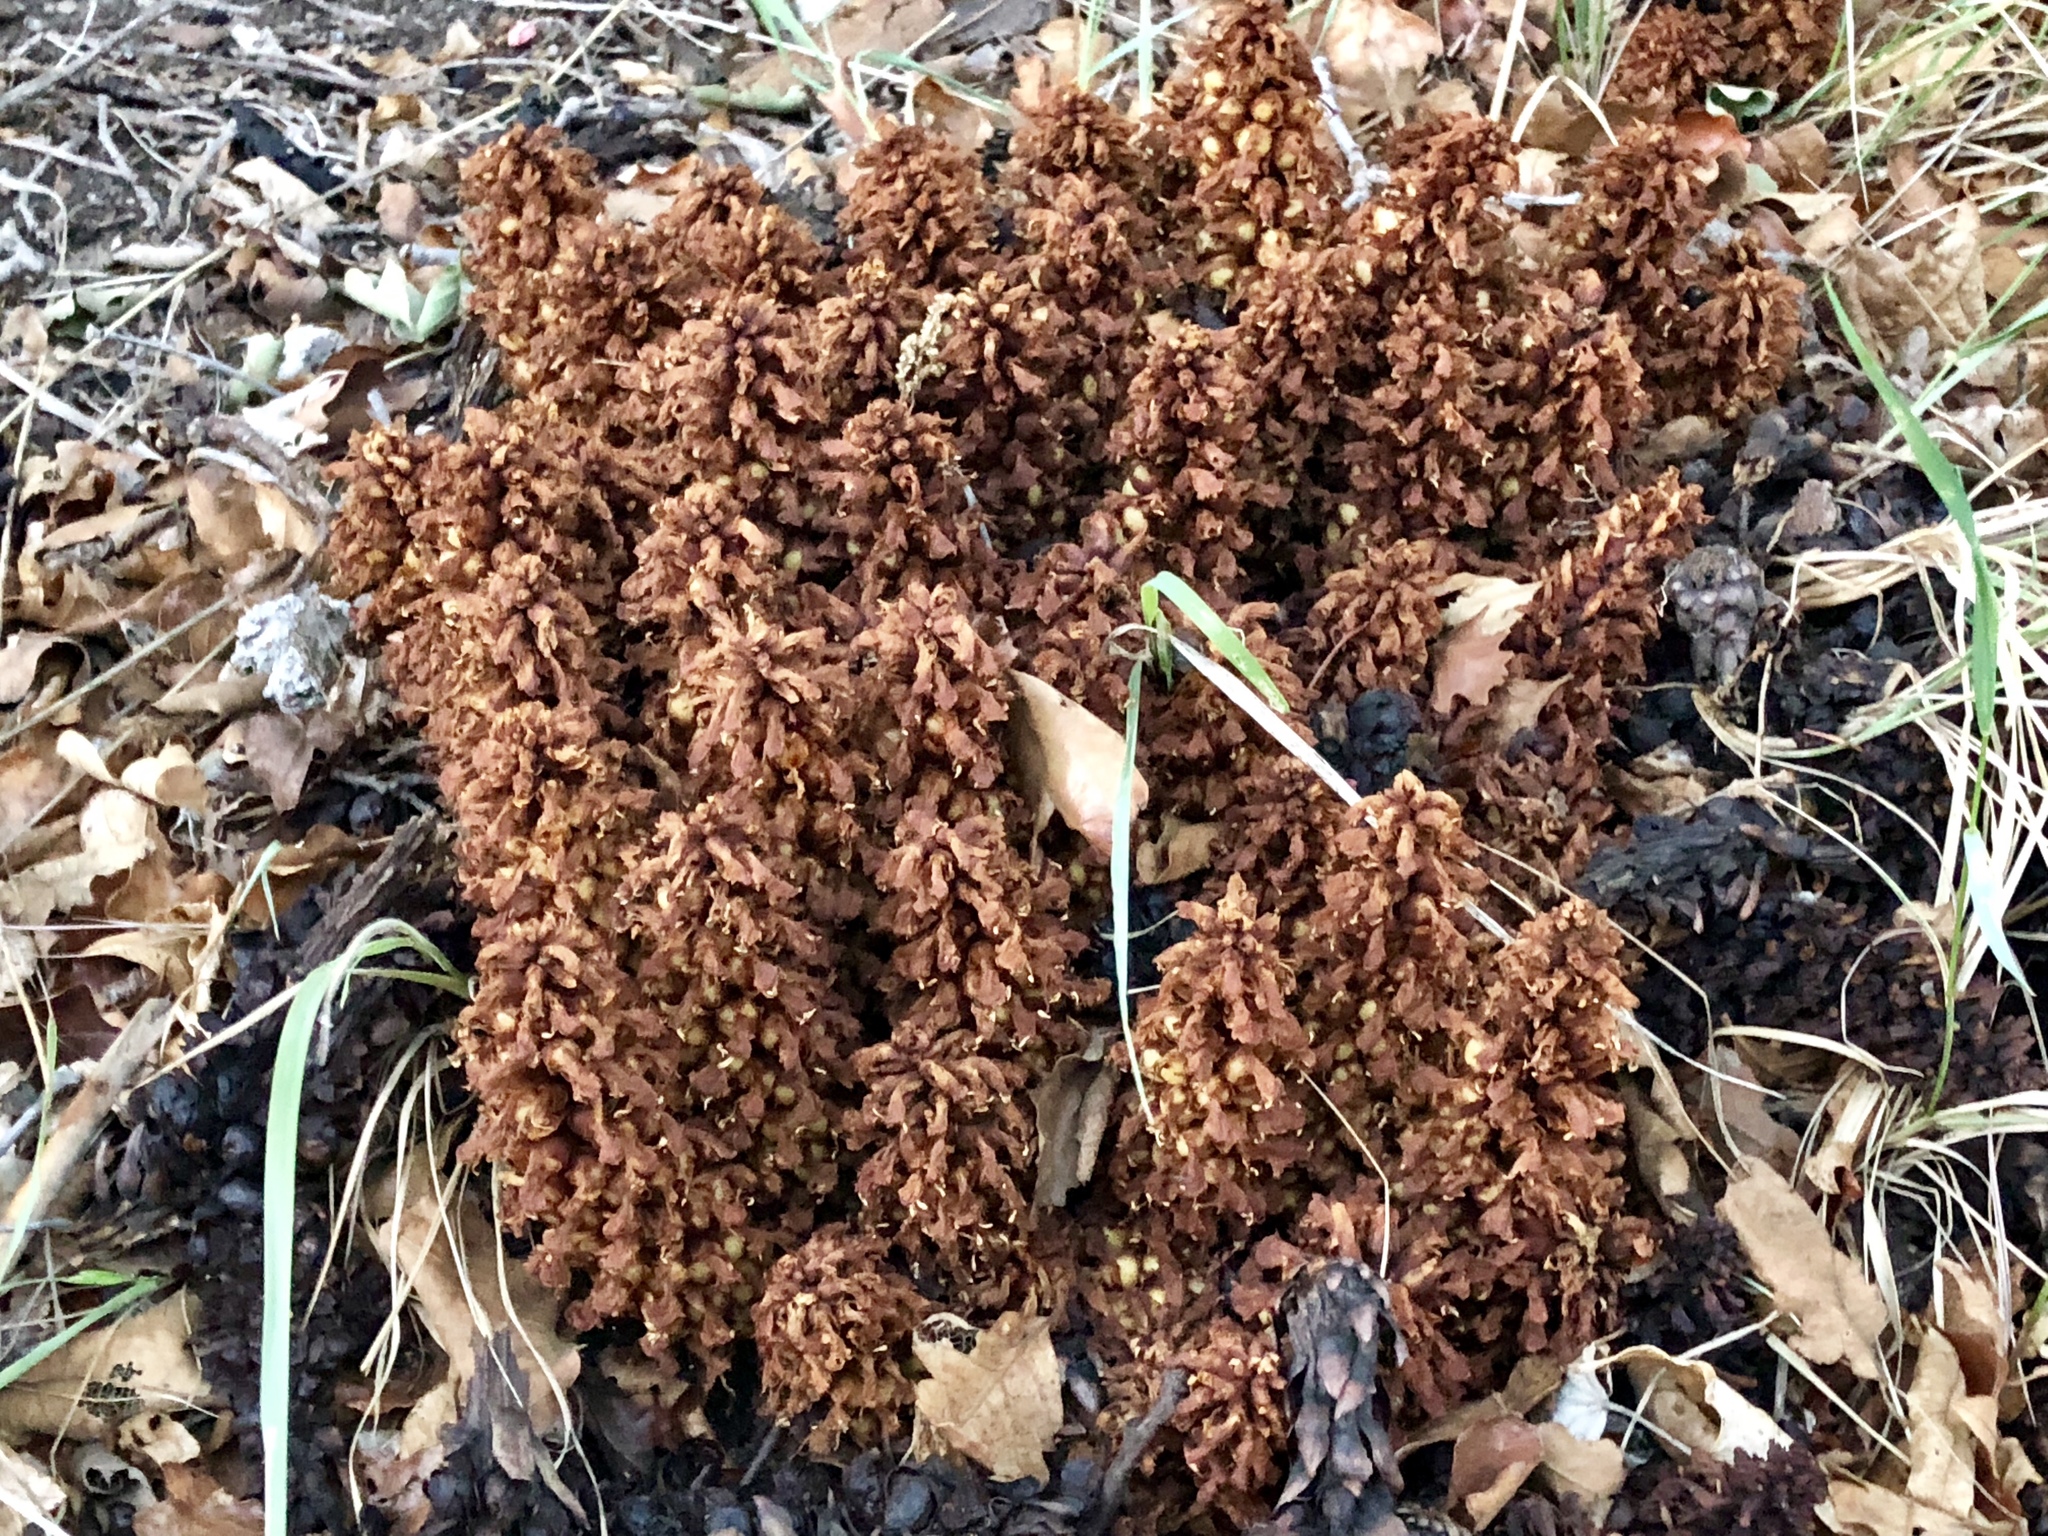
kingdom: Plantae
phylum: Tracheophyta
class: Magnoliopsida
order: Lamiales
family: Orobanchaceae
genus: Conopholis
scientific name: Conopholis alpina
